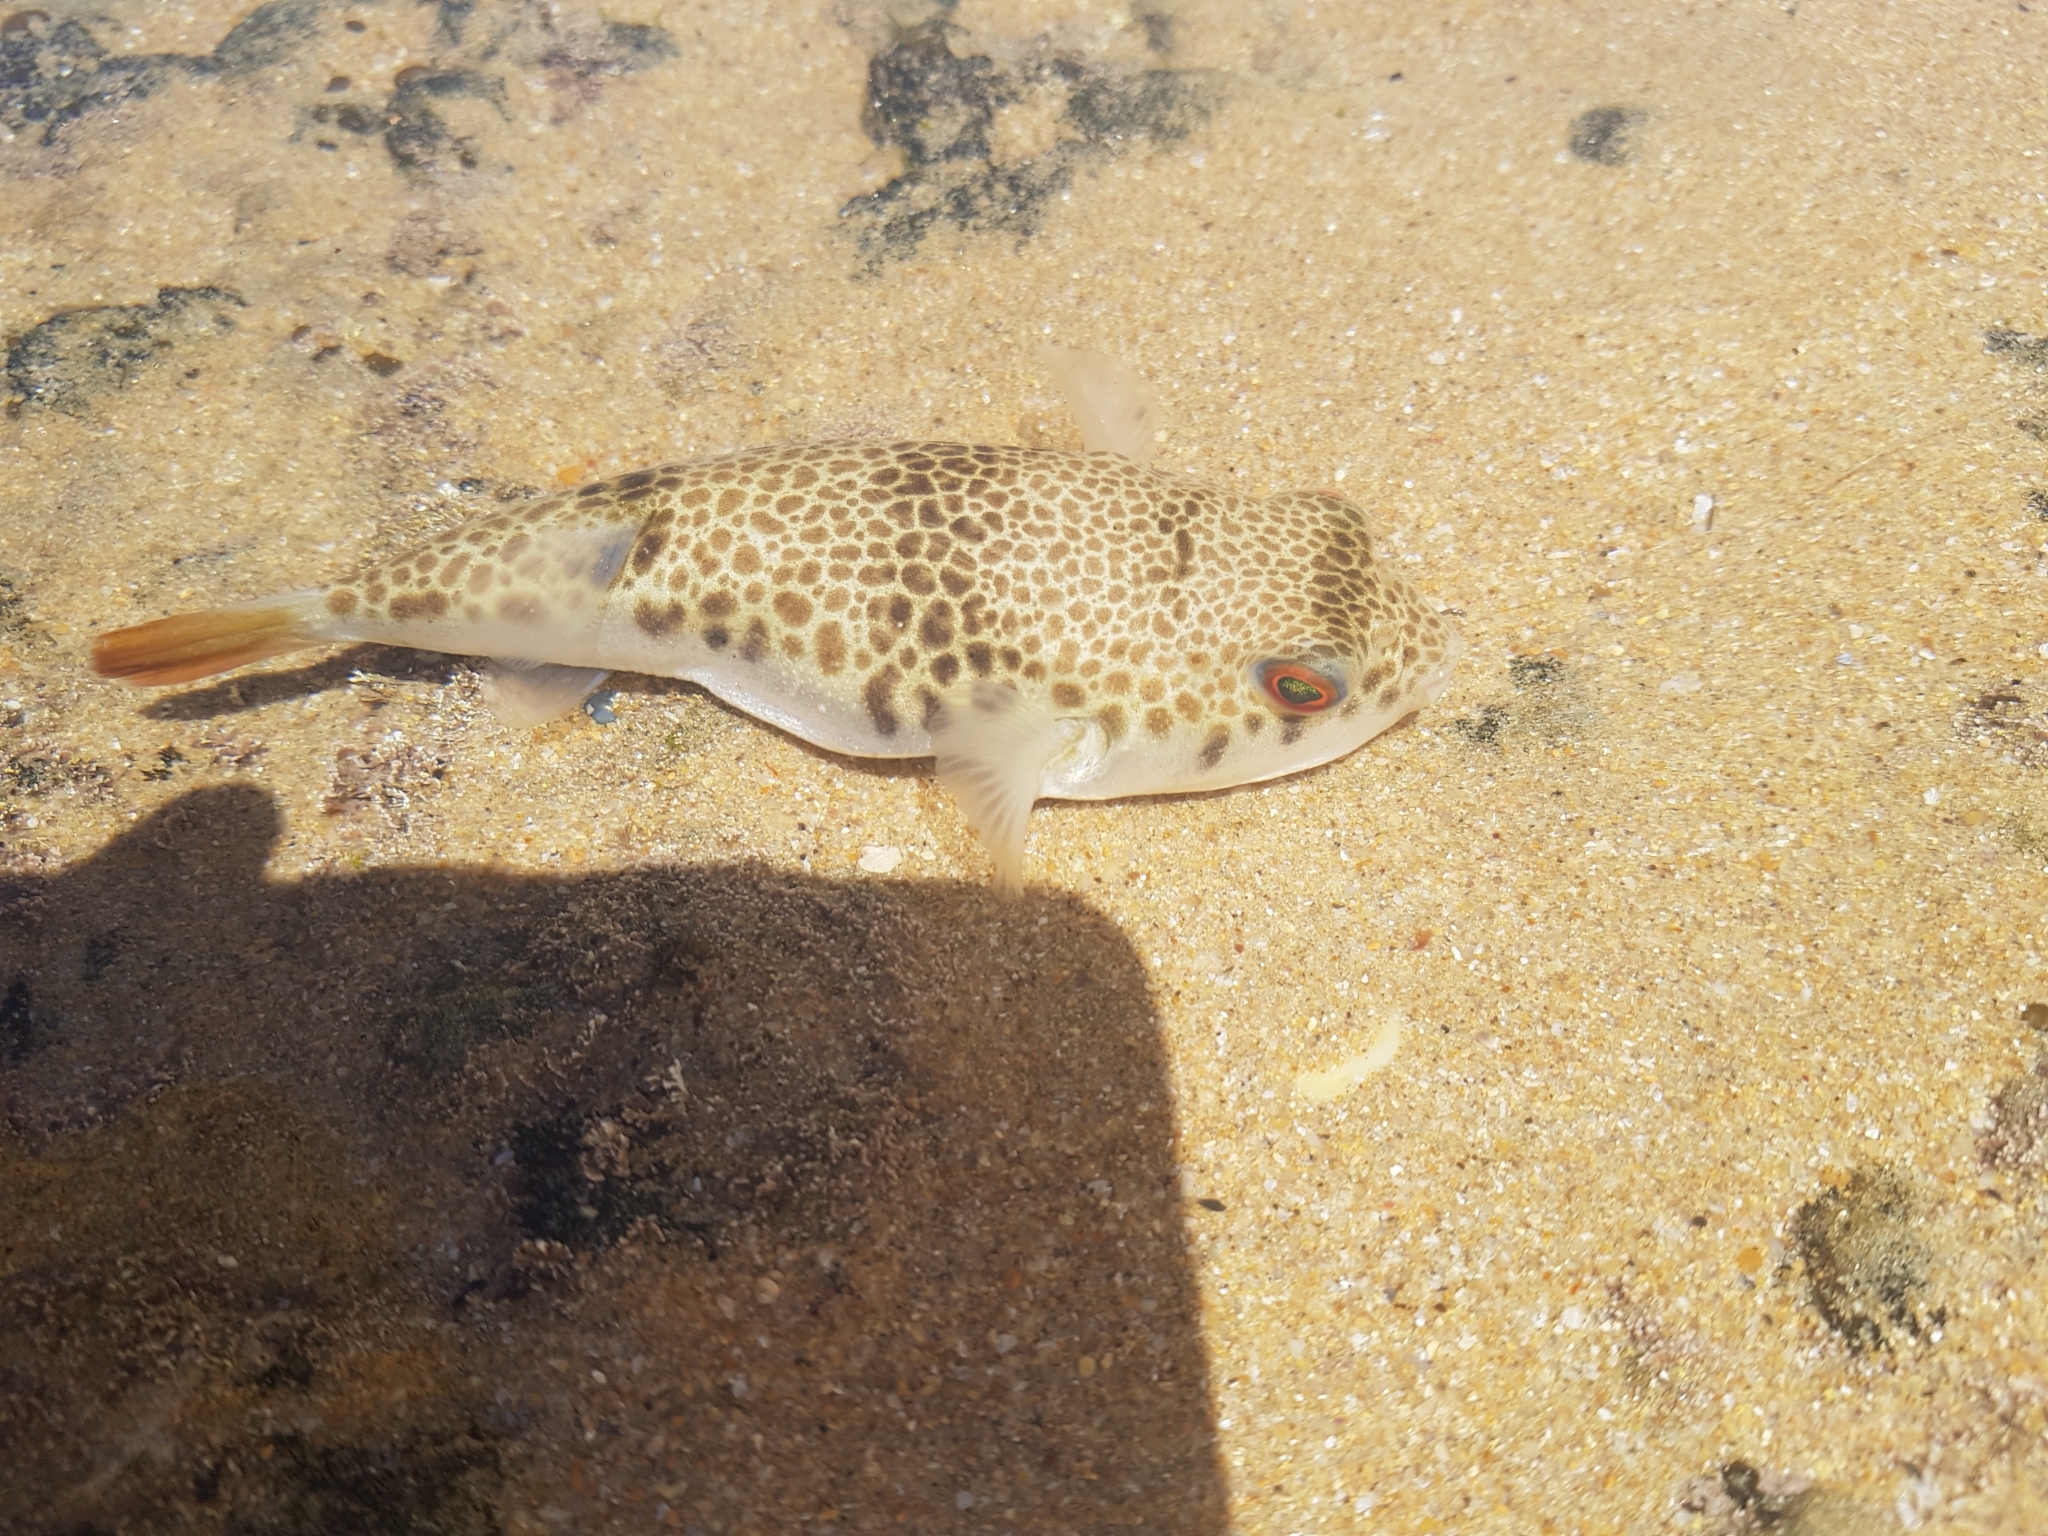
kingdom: Animalia
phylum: Chordata
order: Tetraodontiformes
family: Tetraodontidae
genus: Tetractenos
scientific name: Tetractenos glaber
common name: Smooth toadfish
